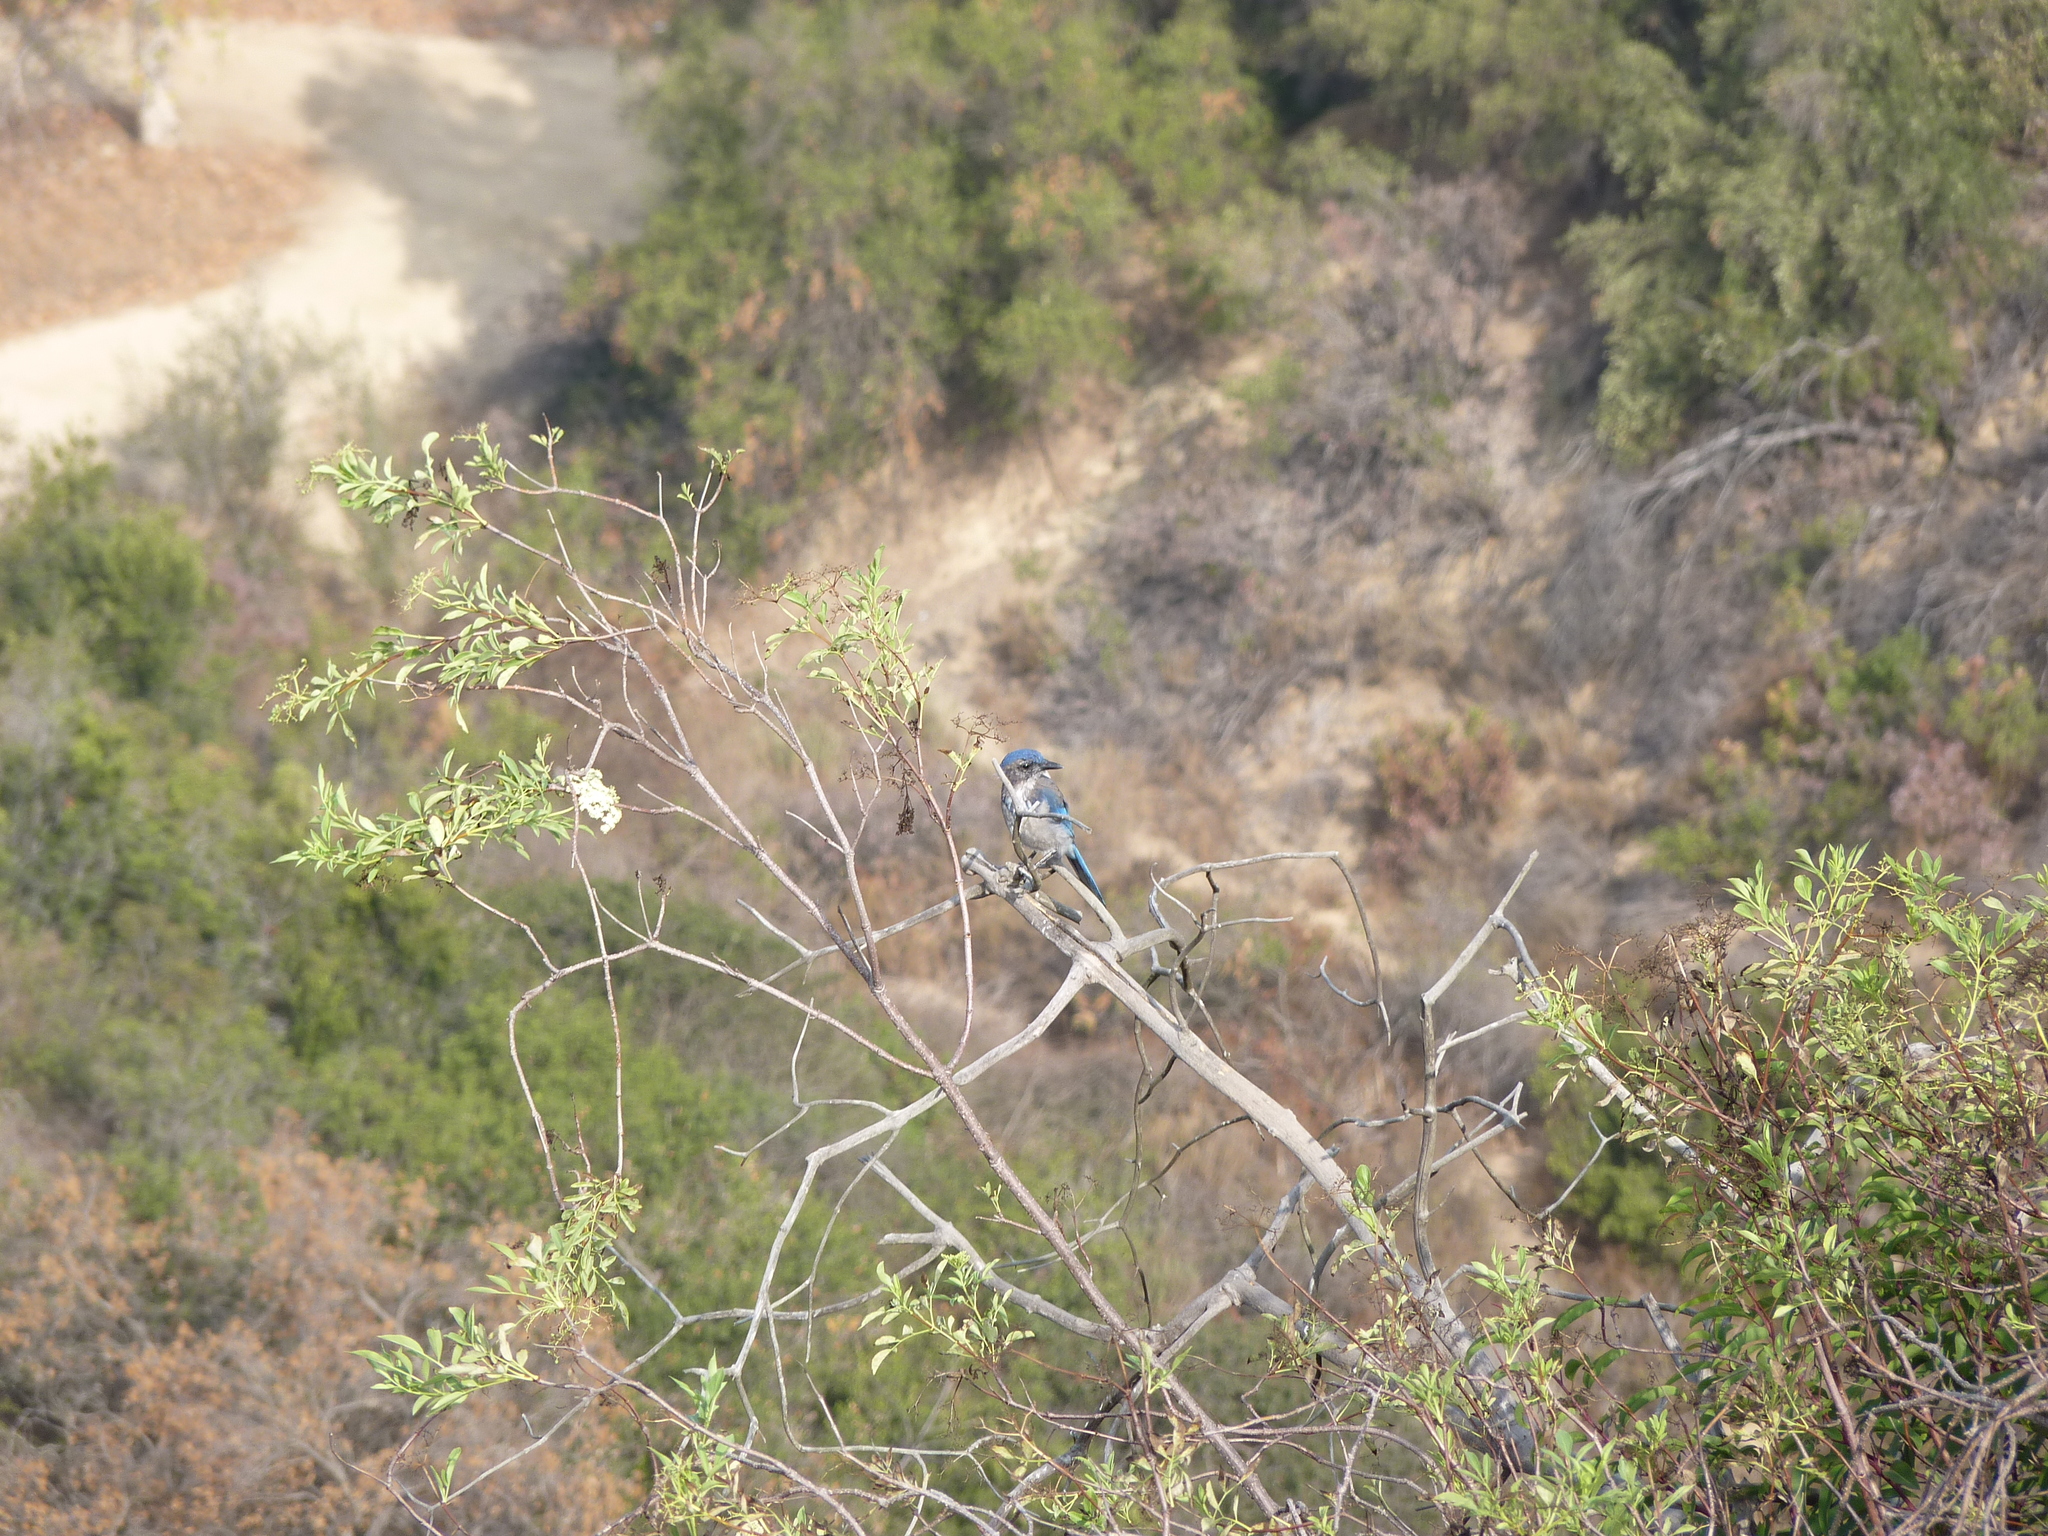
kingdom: Animalia
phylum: Chordata
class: Aves
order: Passeriformes
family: Corvidae
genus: Aphelocoma
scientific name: Aphelocoma californica
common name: California scrub-jay
